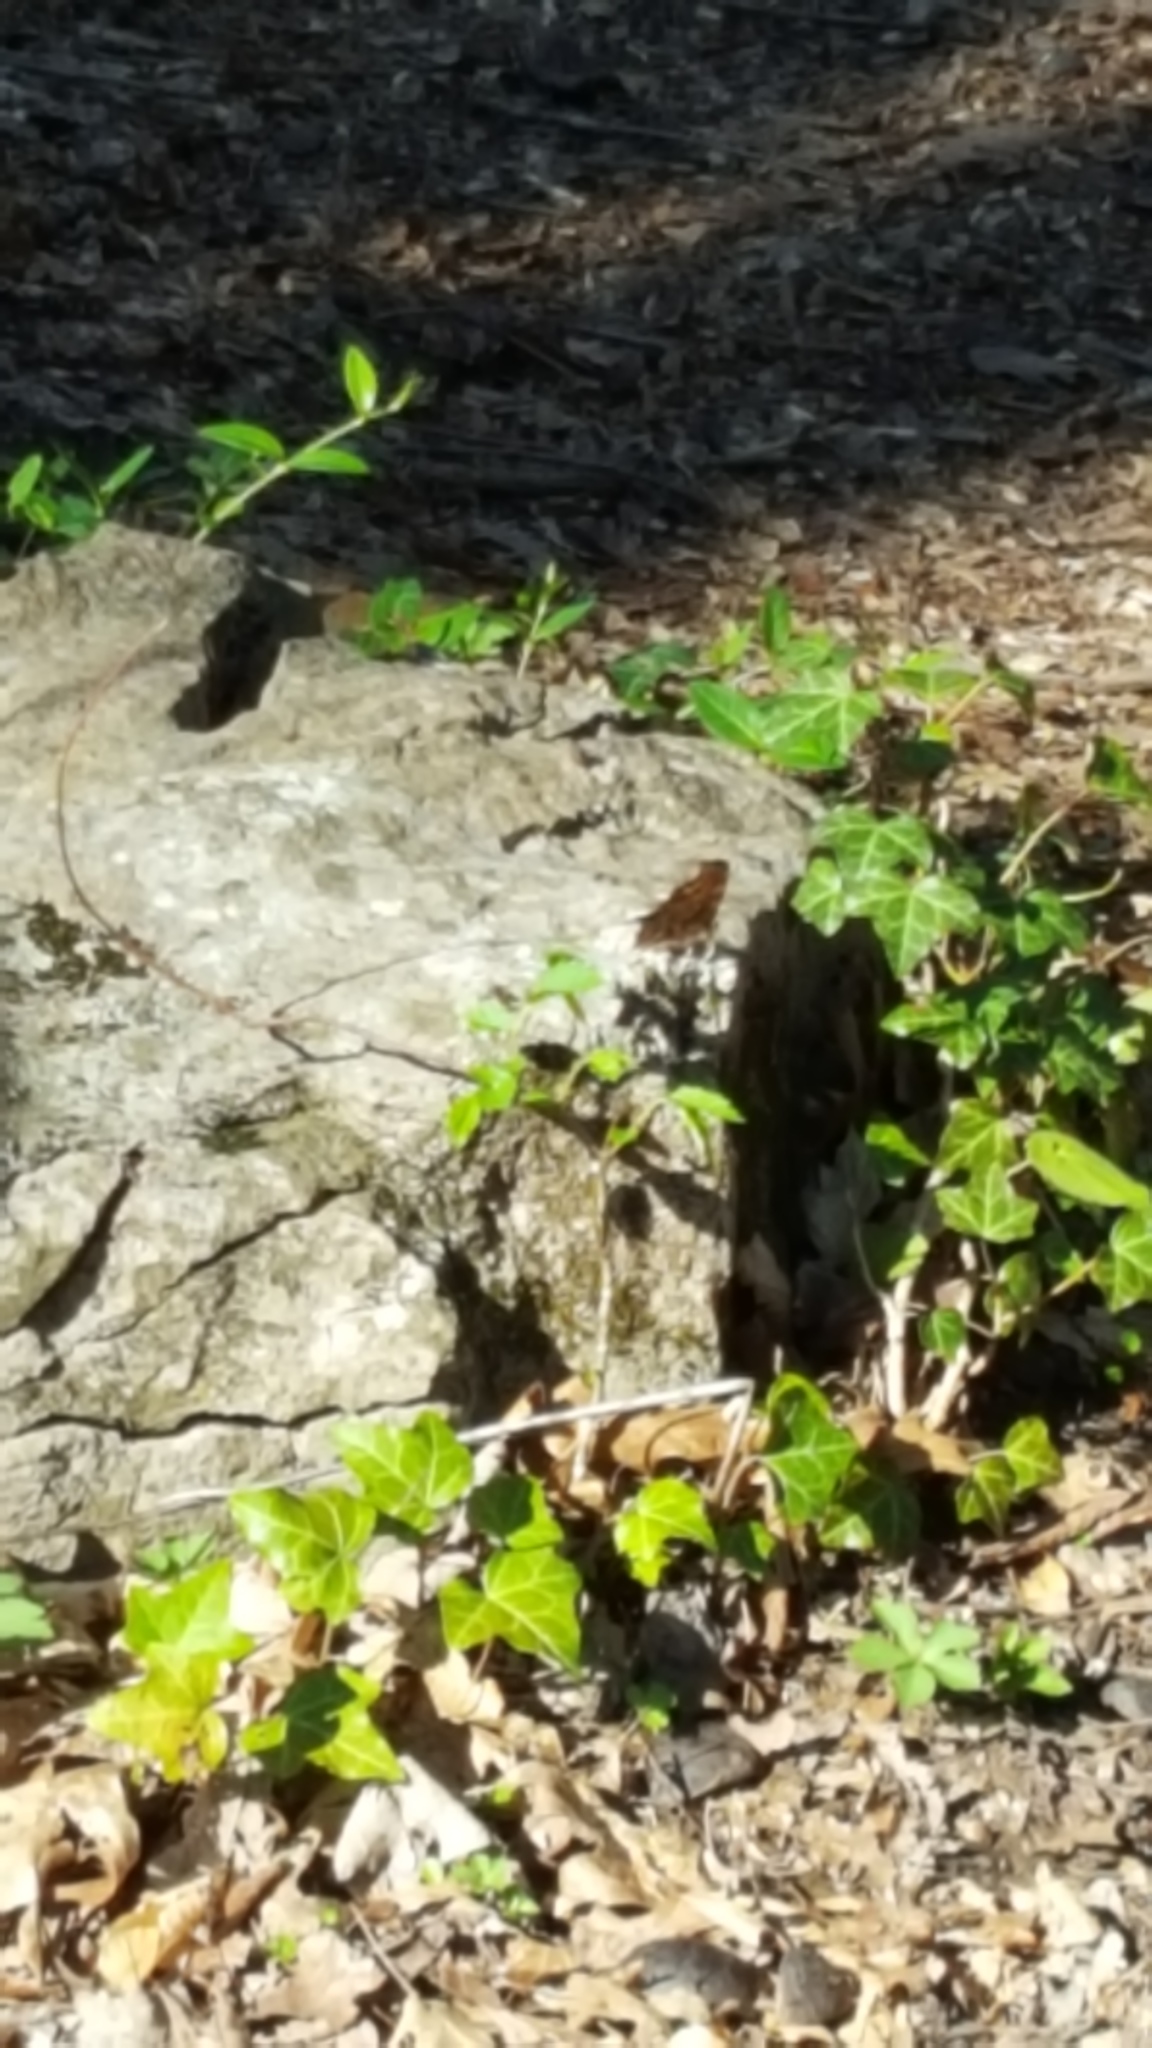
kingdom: Animalia
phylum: Arthropoda
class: Insecta
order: Lepidoptera
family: Nymphalidae
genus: Polygonia
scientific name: Polygonia comma
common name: Eastern comma
